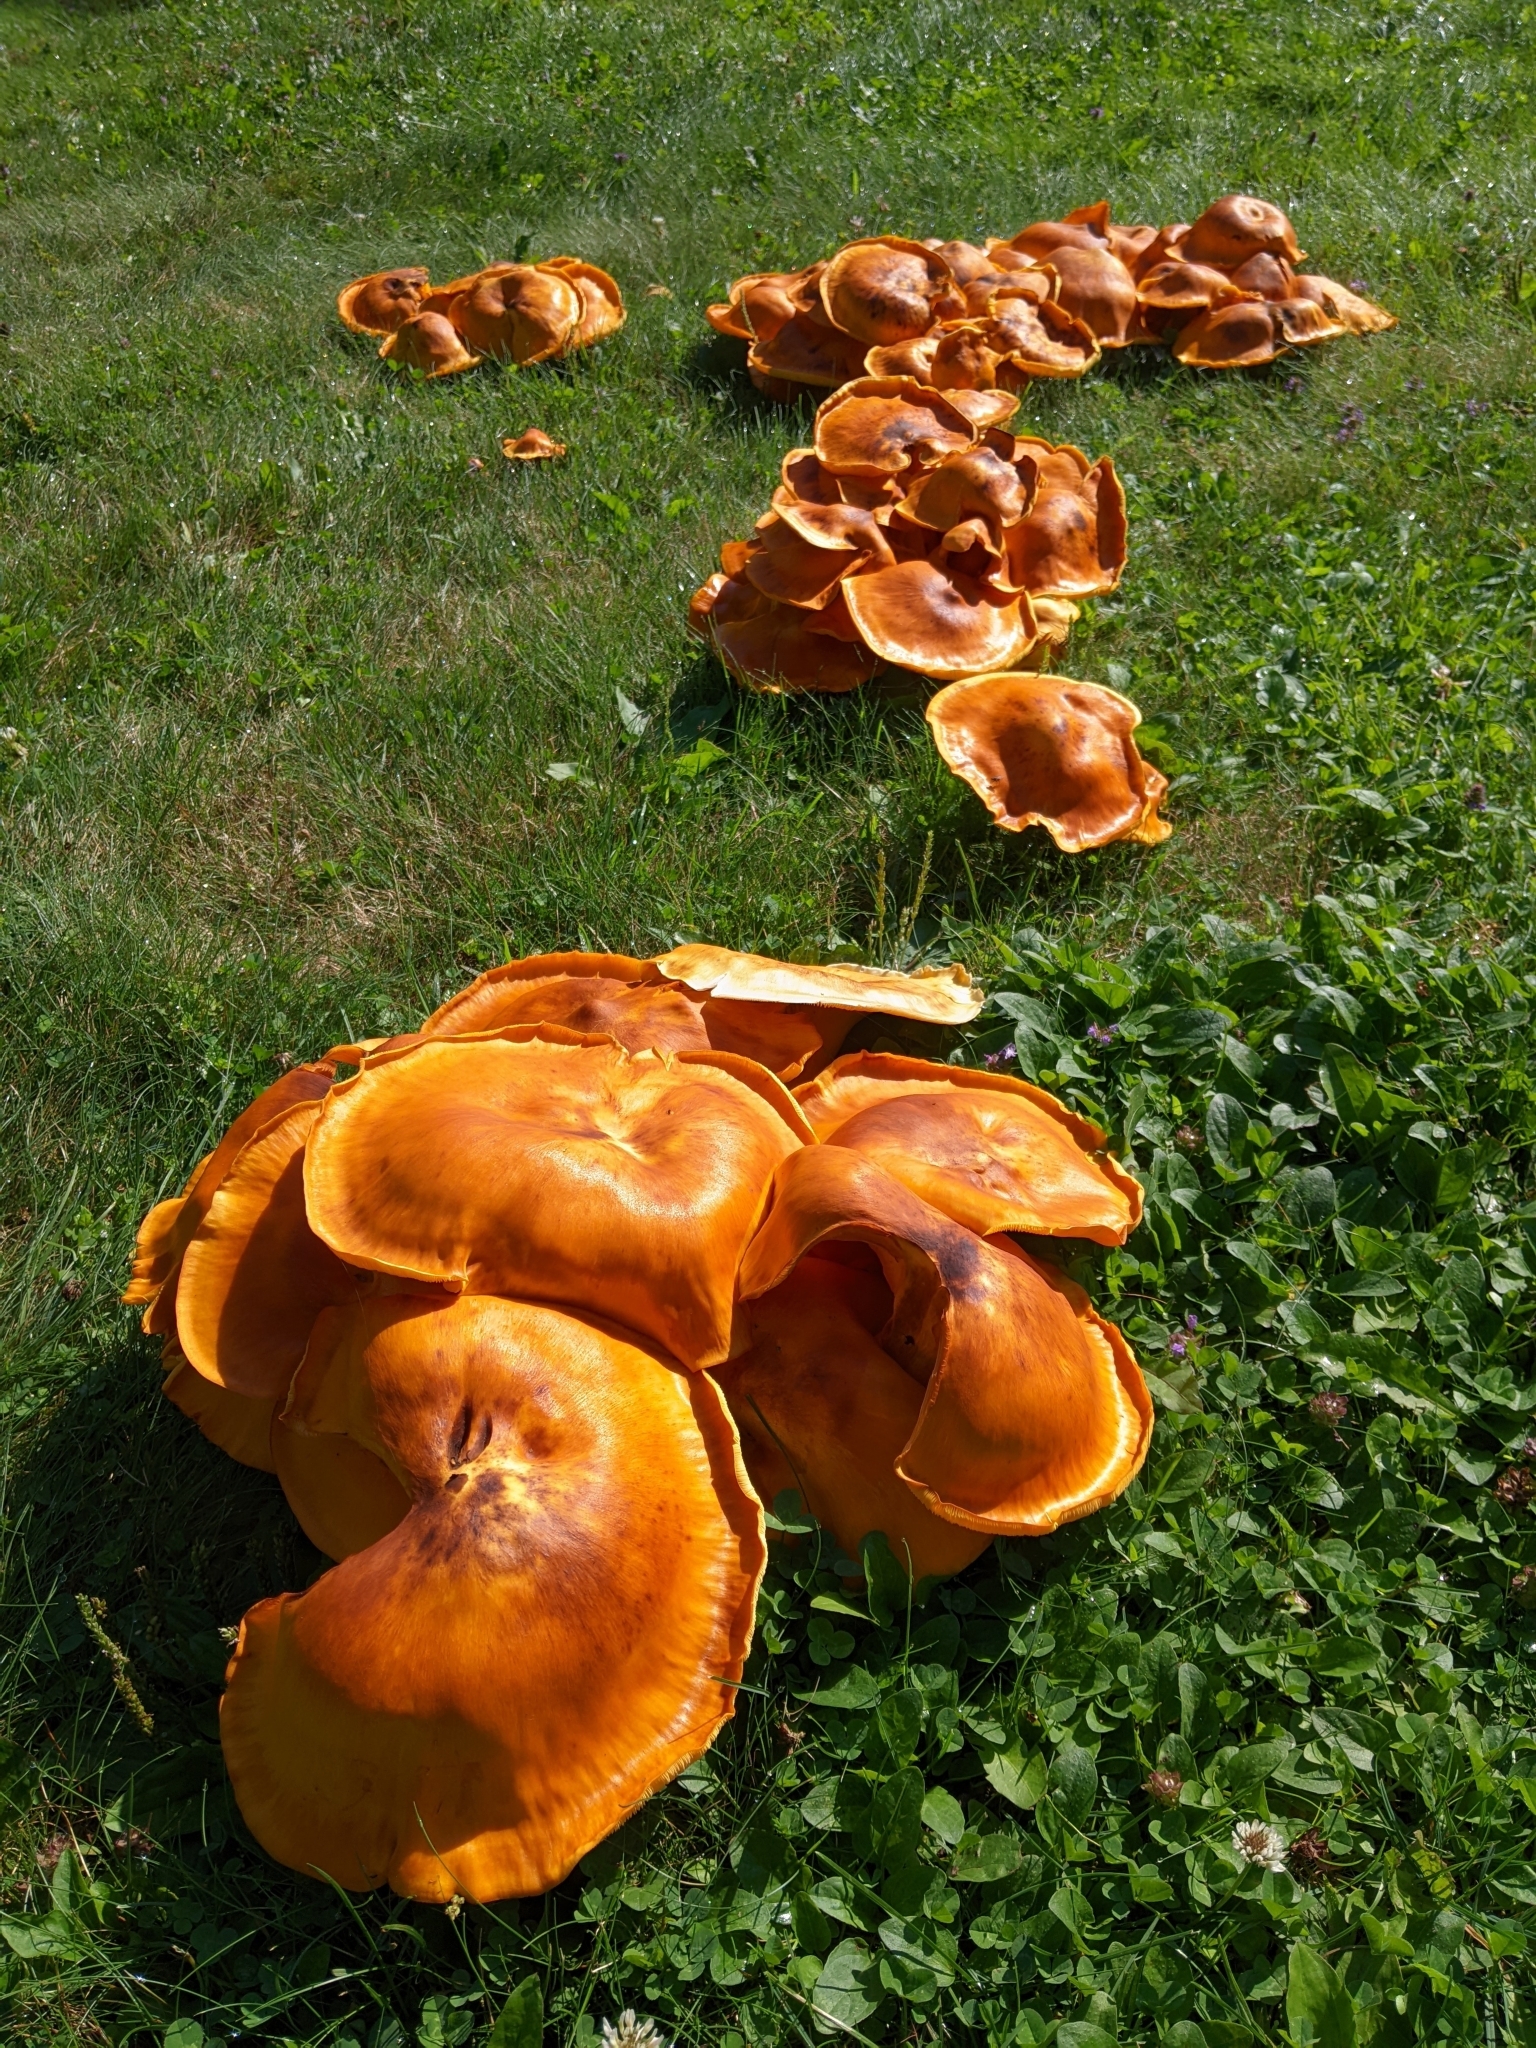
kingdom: Fungi
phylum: Basidiomycota
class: Agaricomycetes
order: Agaricales
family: Omphalotaceae
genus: Omphalotus
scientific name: Omphalotus illudens
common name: Jack o lantern
